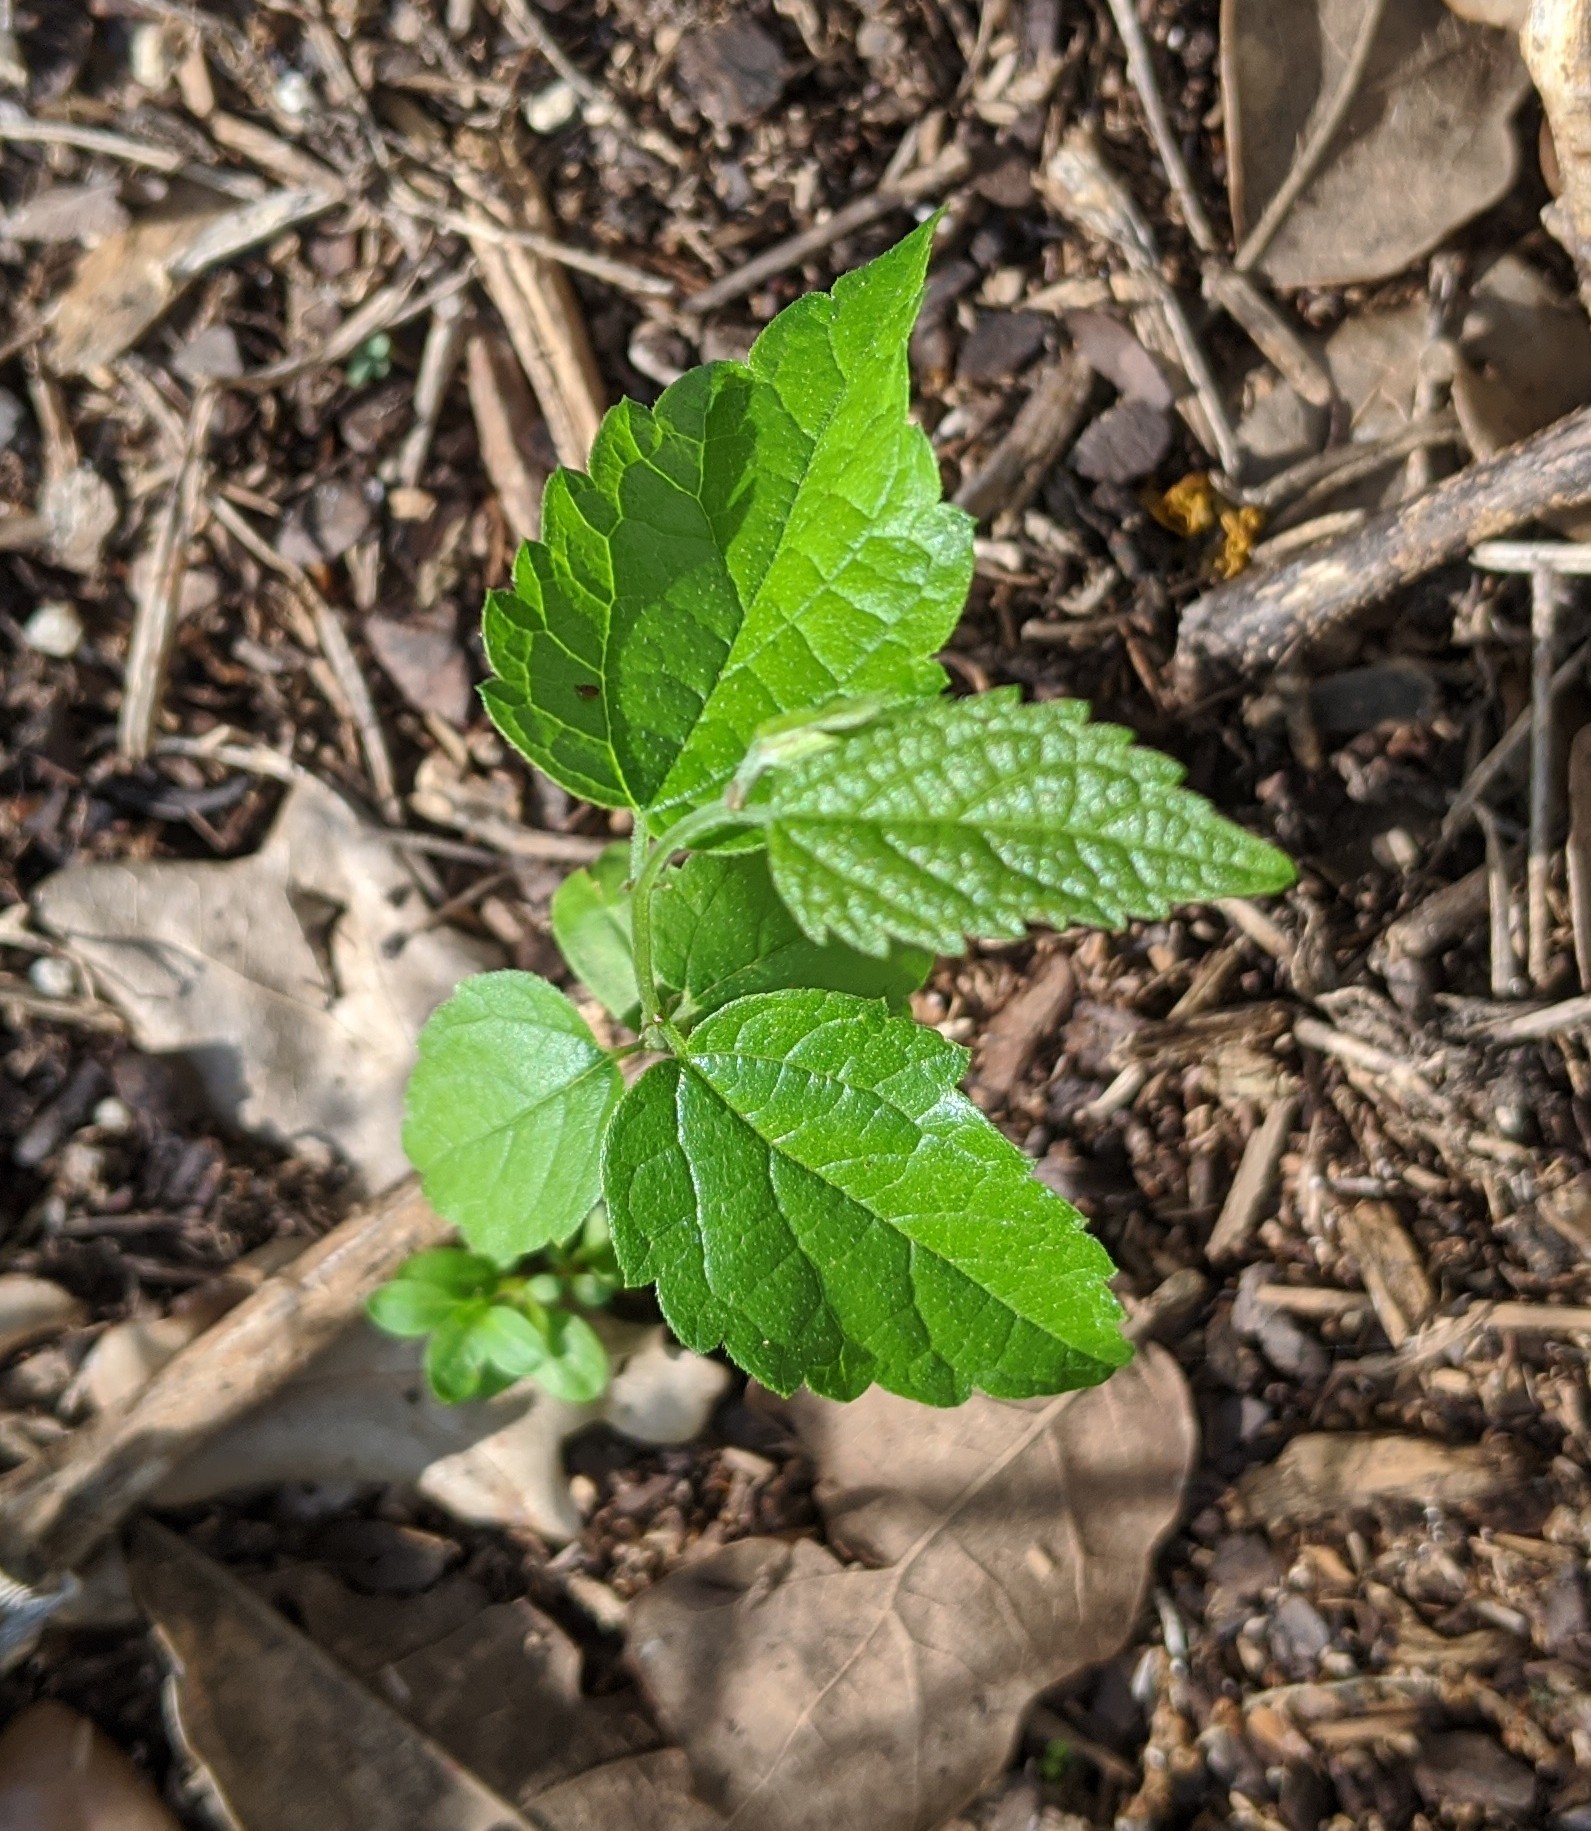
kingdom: Plantae
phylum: Tracheophyta
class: Magnoliopsida
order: Rosales
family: Cannabaceae
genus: Celtis
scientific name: Celtis laevigata
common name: Sugarberry
